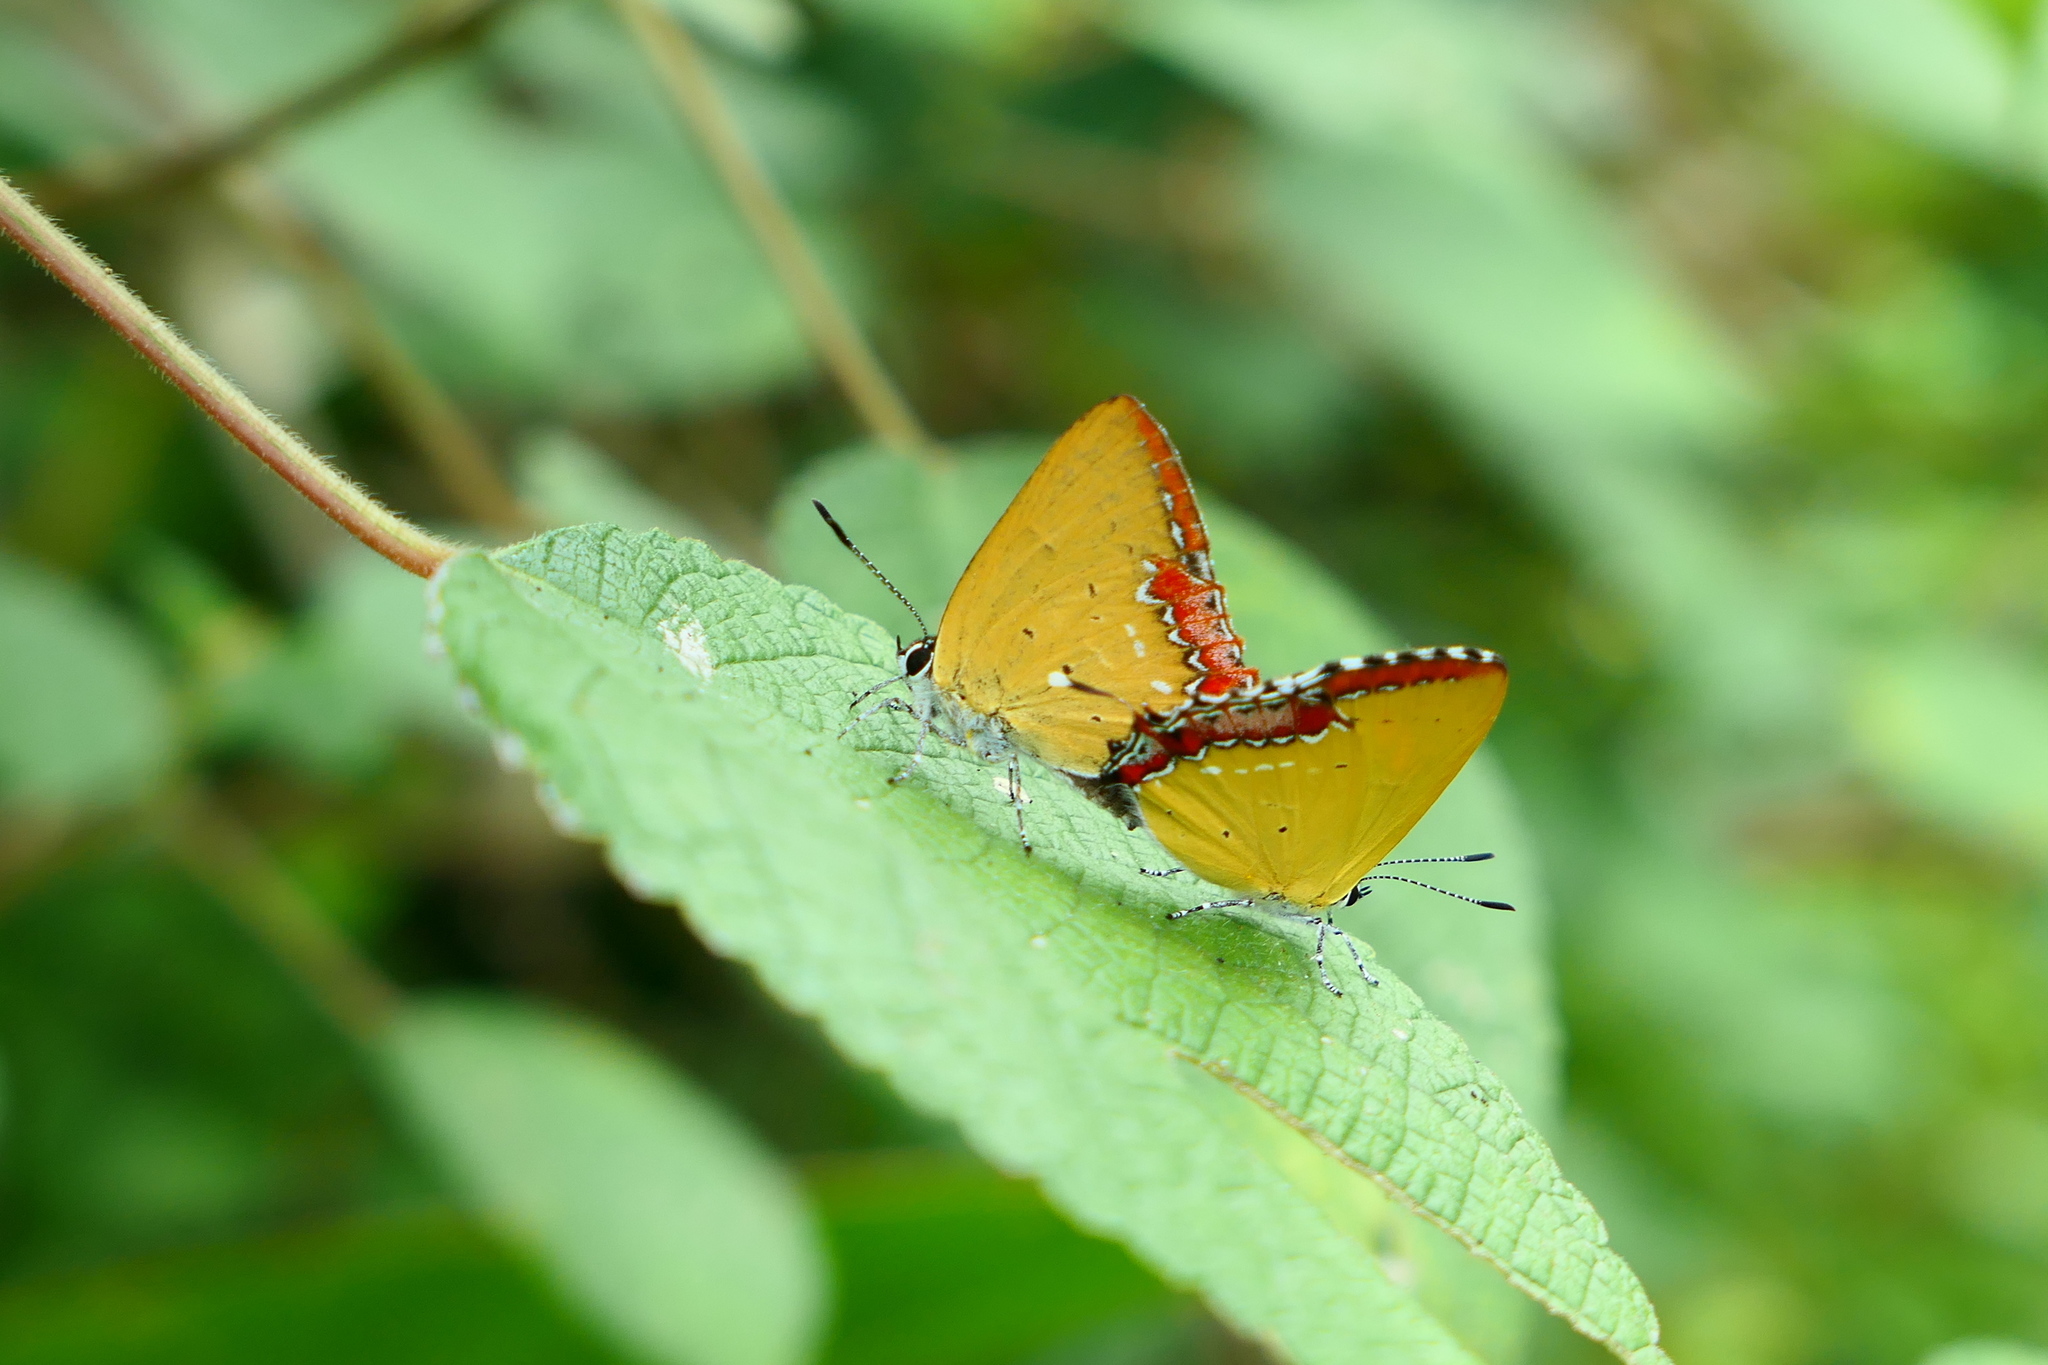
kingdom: Animalia
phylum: Arthropoda
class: Insecta
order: Lepidoptera
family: Lycaenidae
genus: Heliophorus
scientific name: Heliophorus ila
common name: Restricted purple sapphire
